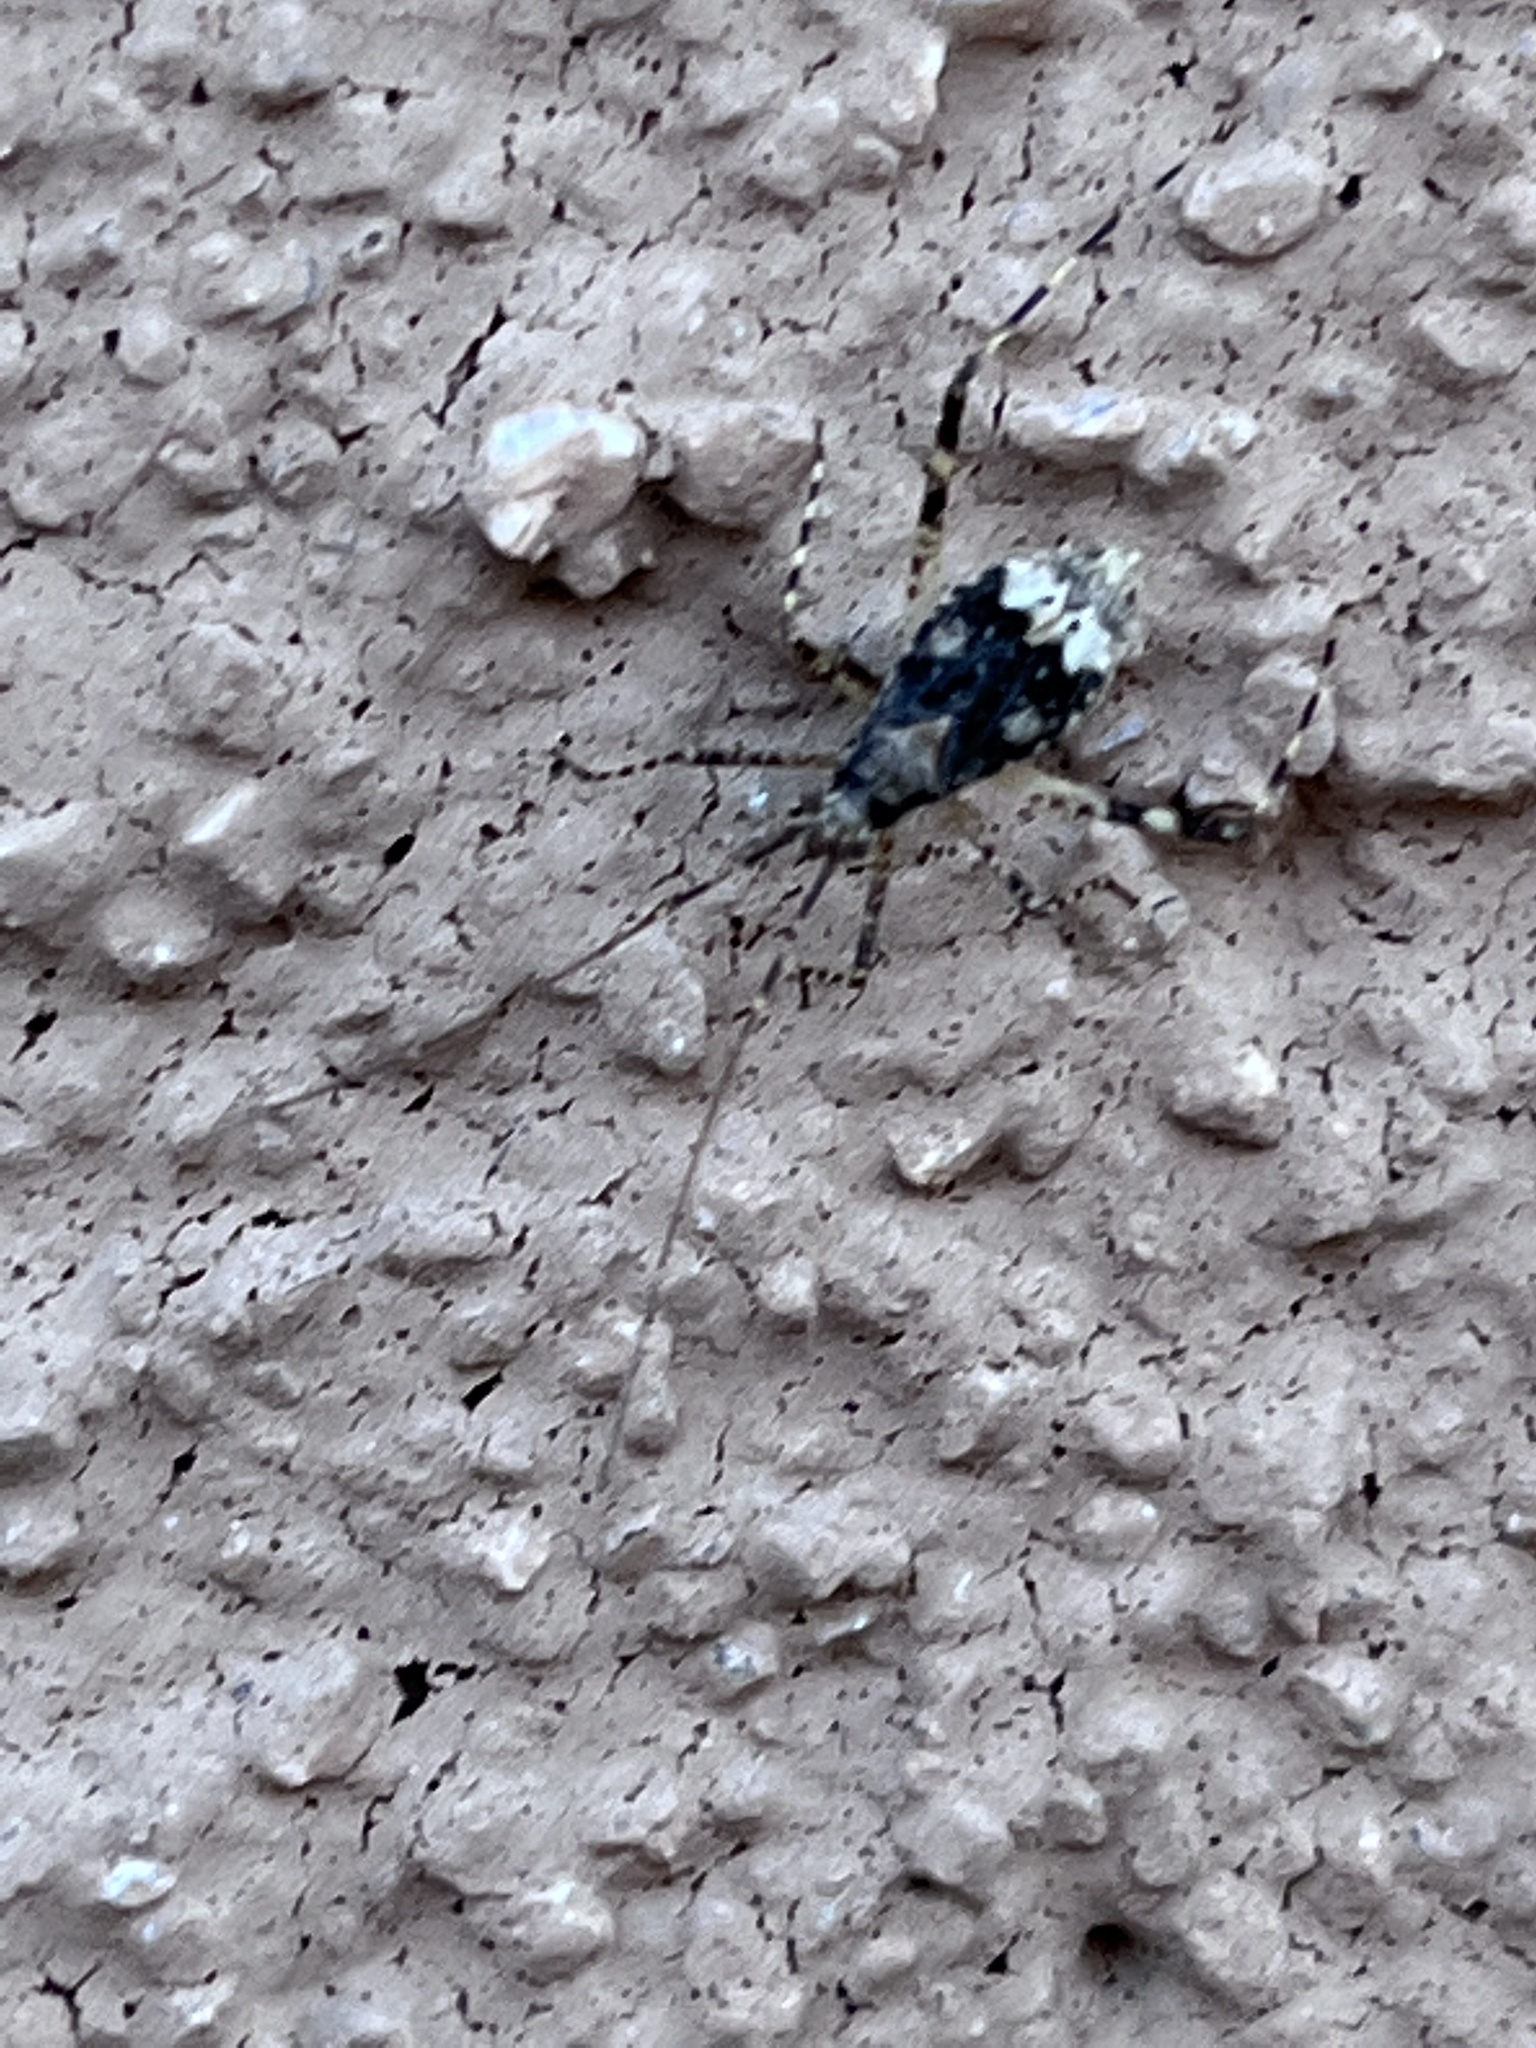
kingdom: Animalia
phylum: Arthropoda
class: Insecta
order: Hemiptera
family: Miridae
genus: Phytocoris
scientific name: Phytocoris
